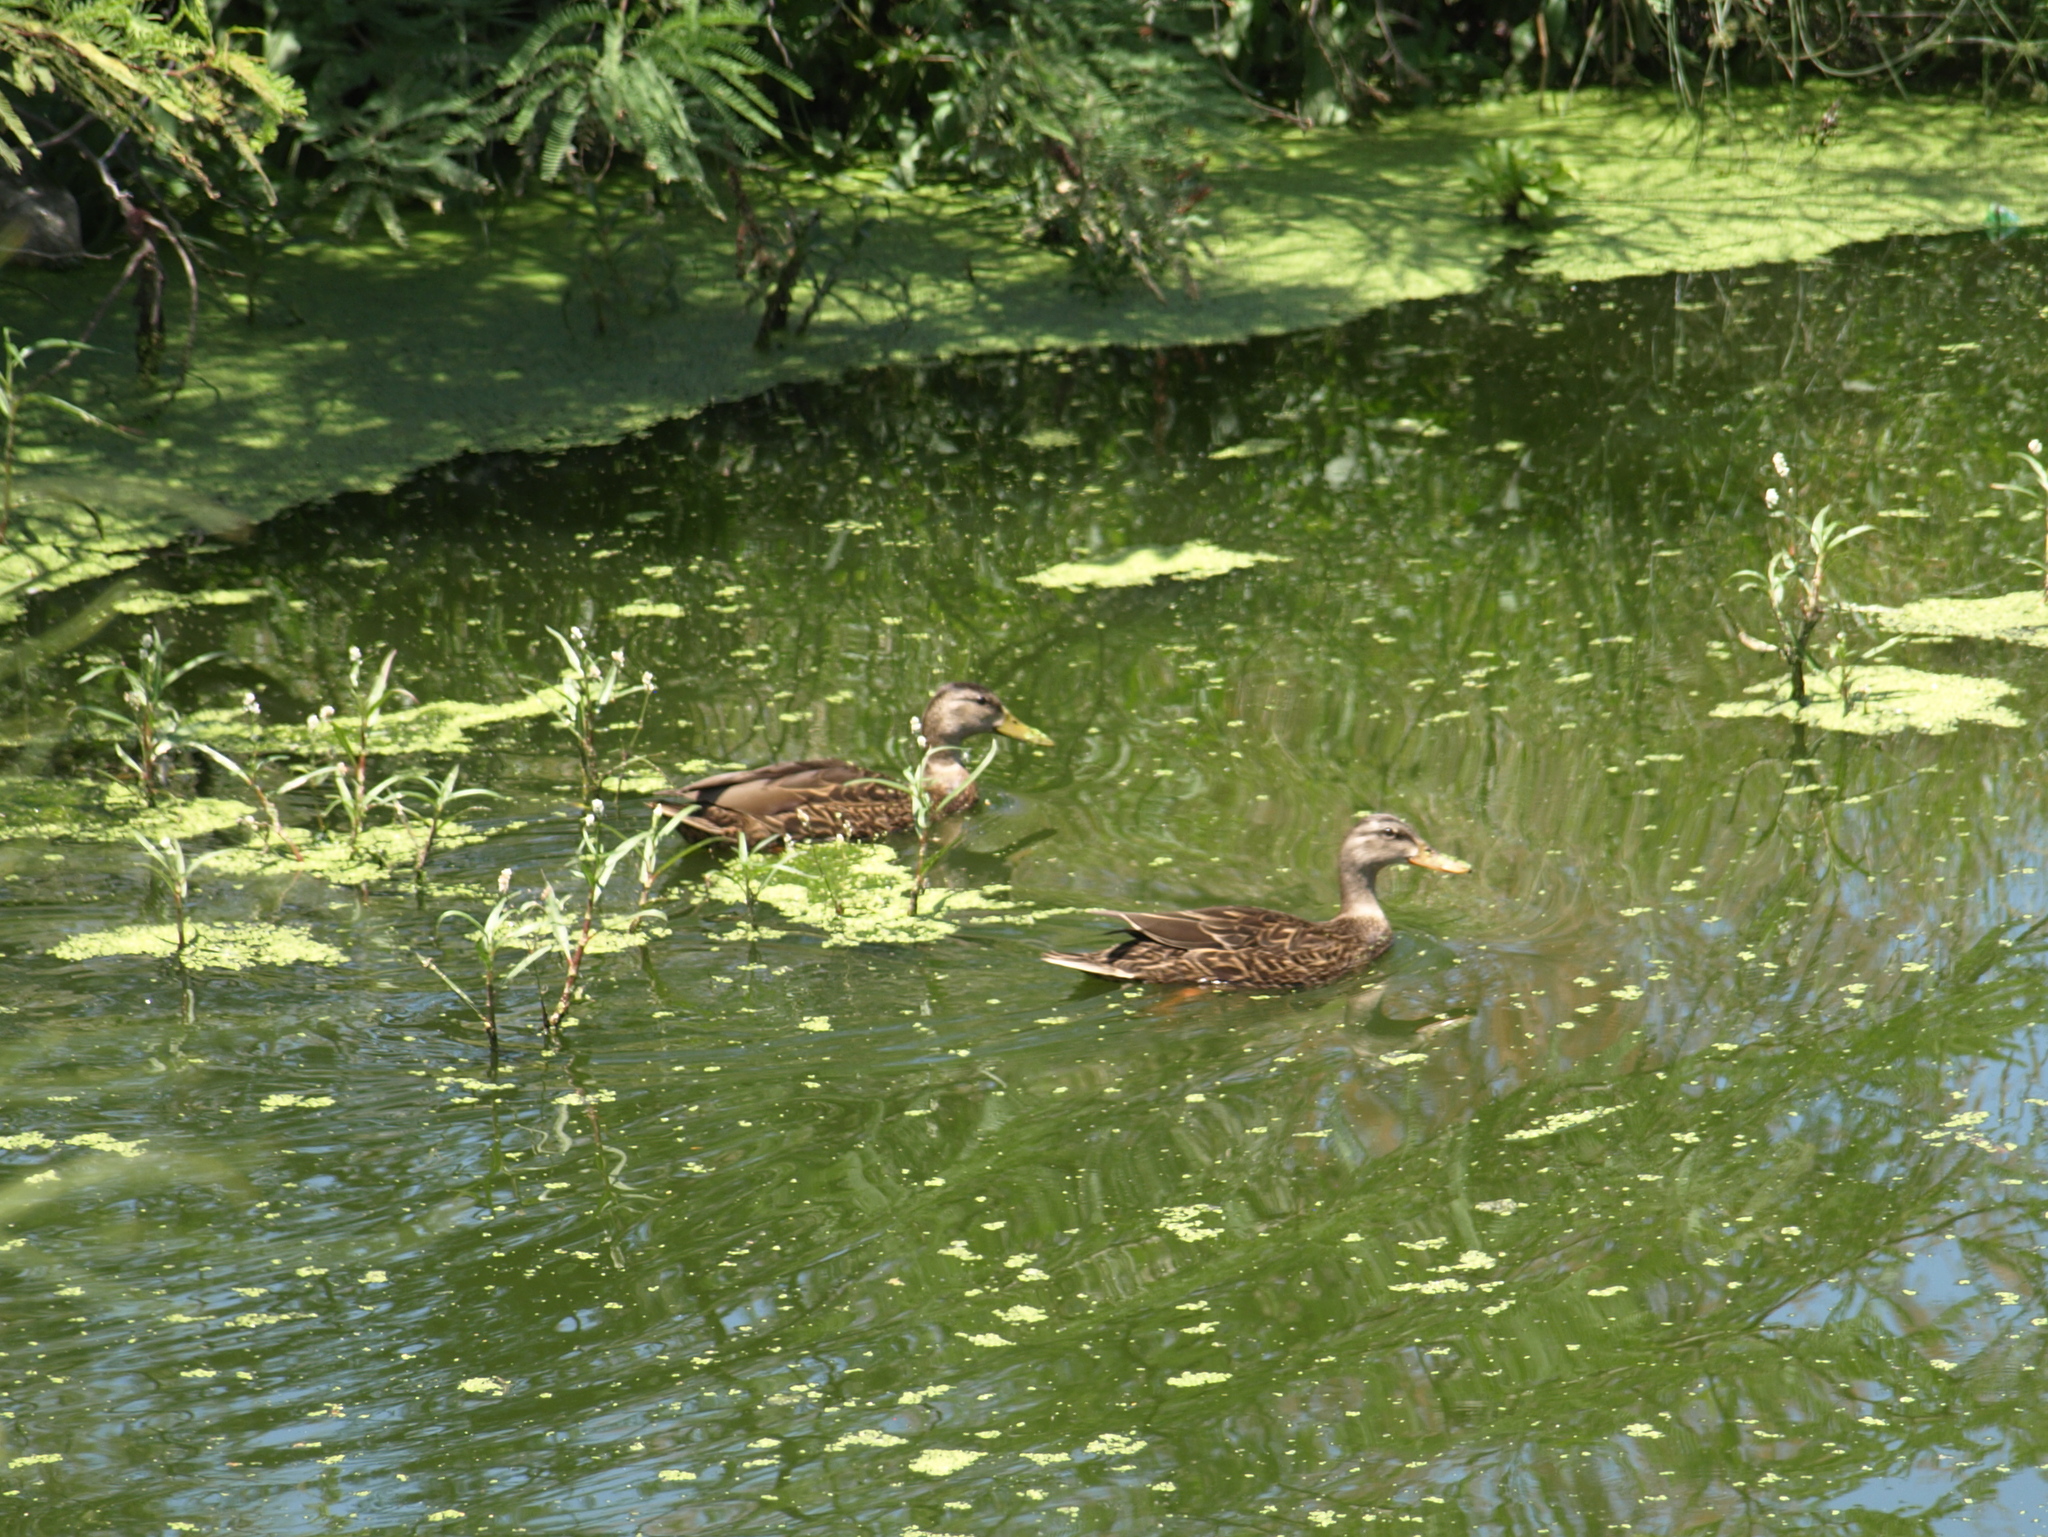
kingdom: Animalia
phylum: Chordata
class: Aves
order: Anseriformes
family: Anatidae
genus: Anas
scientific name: Anas diazi
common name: Mexican duck
